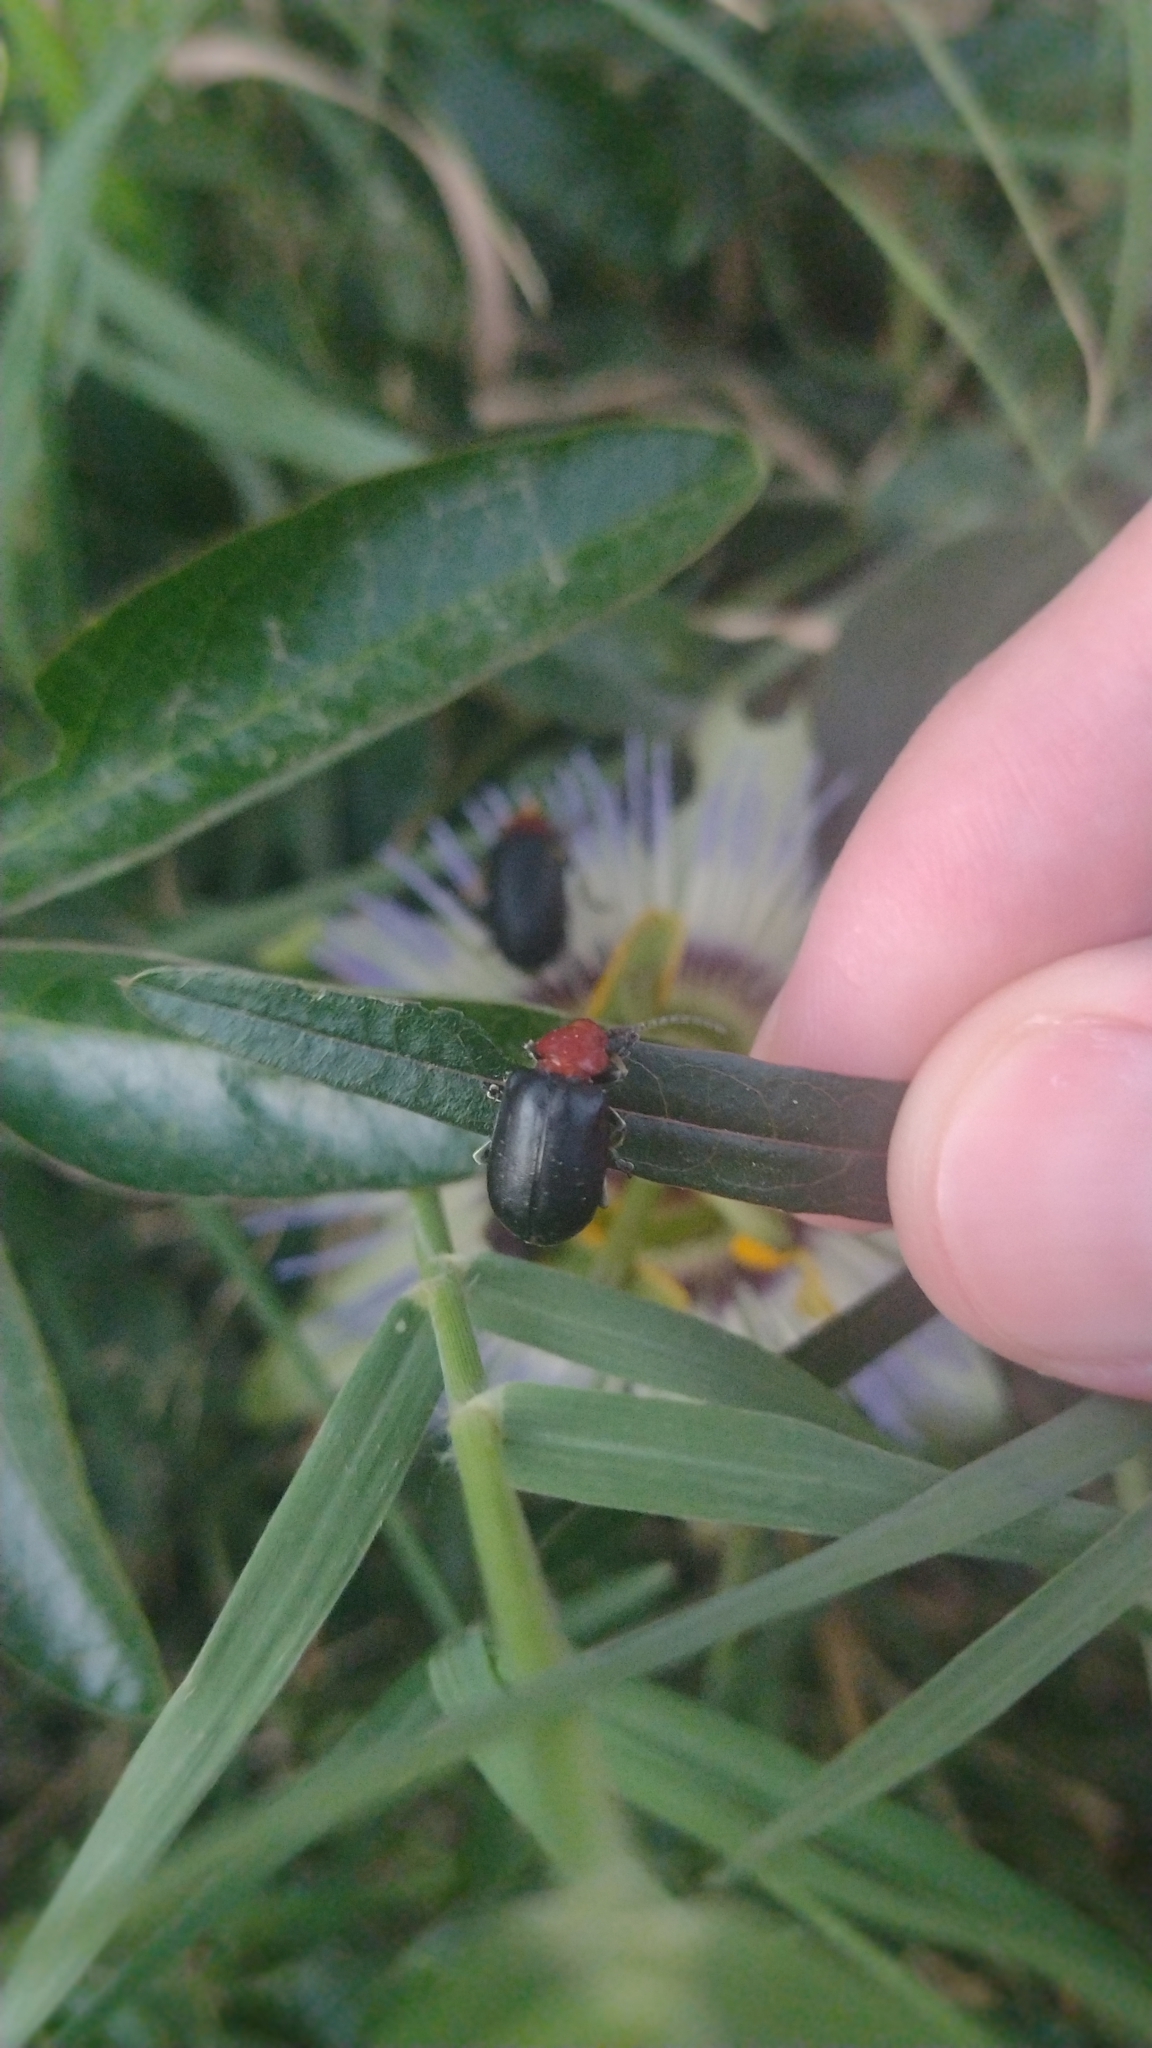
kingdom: Animalia
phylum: Arthropoda
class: Insecta
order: Coleoptera
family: Chrysomelidae
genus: Cacoscelis
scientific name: Cacoscelis
